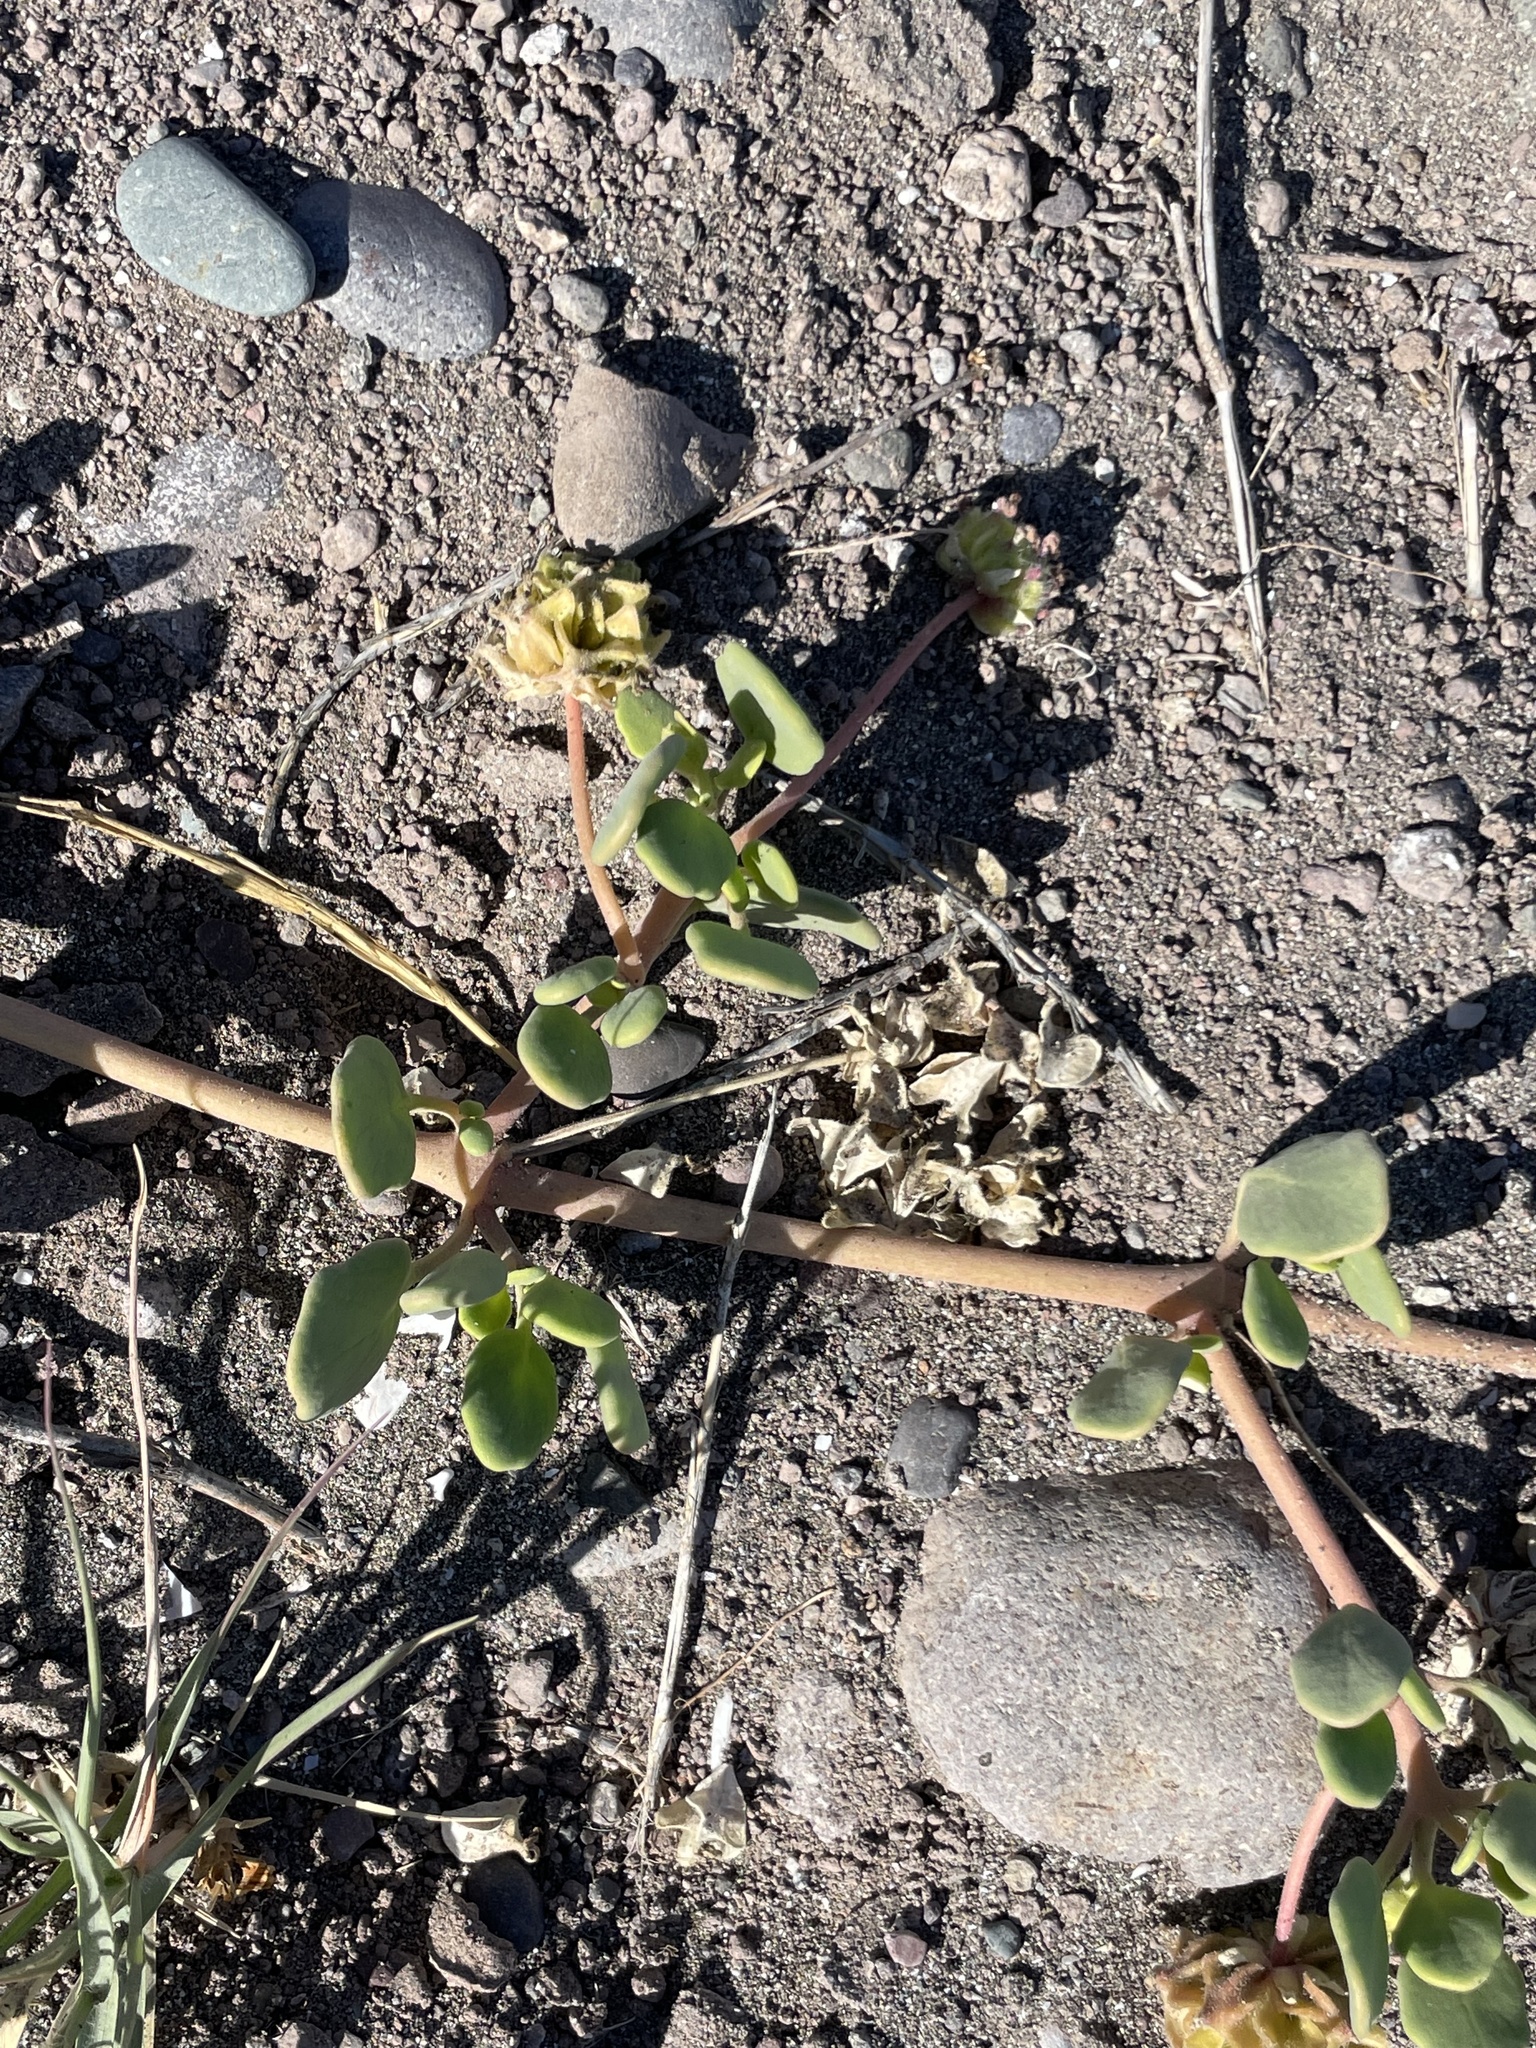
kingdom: Plantae
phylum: Tracheophyta
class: Magnoliopsida
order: Caryophyllales
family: Nyctaginaceae
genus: Abronia
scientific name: Abronia maritima
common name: Red sand-verbena
